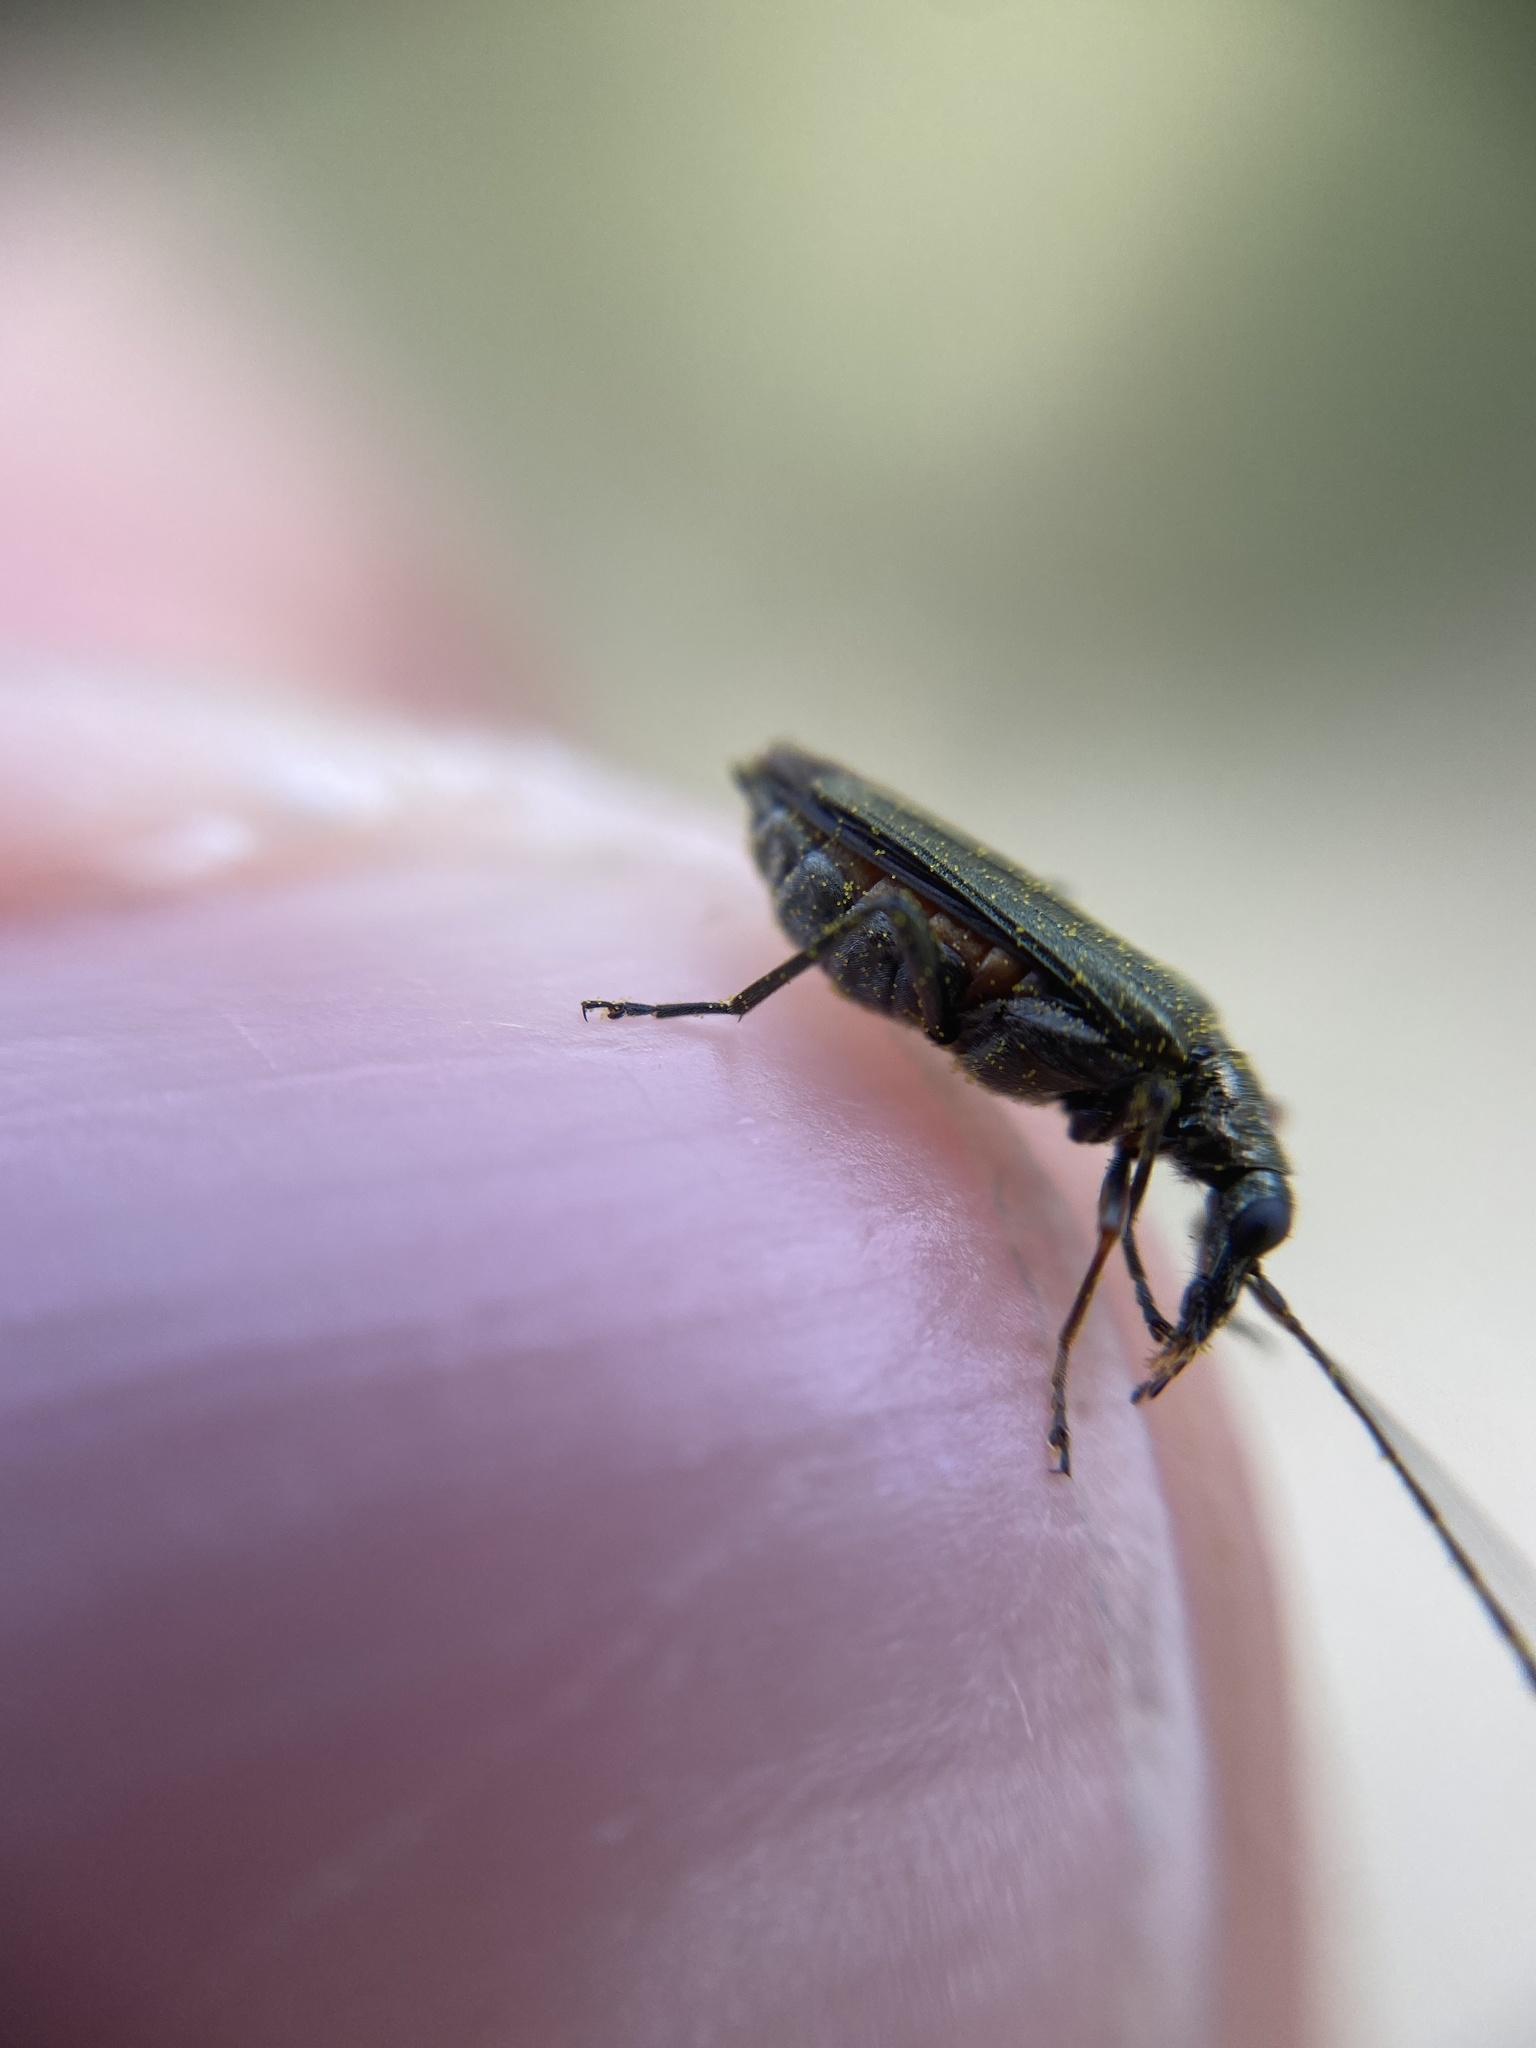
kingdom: Animalia
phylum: Arthropoda
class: Insecta
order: Coleoptera
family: Oedemeridae
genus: Oedemera
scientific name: Oedemera flavipes
